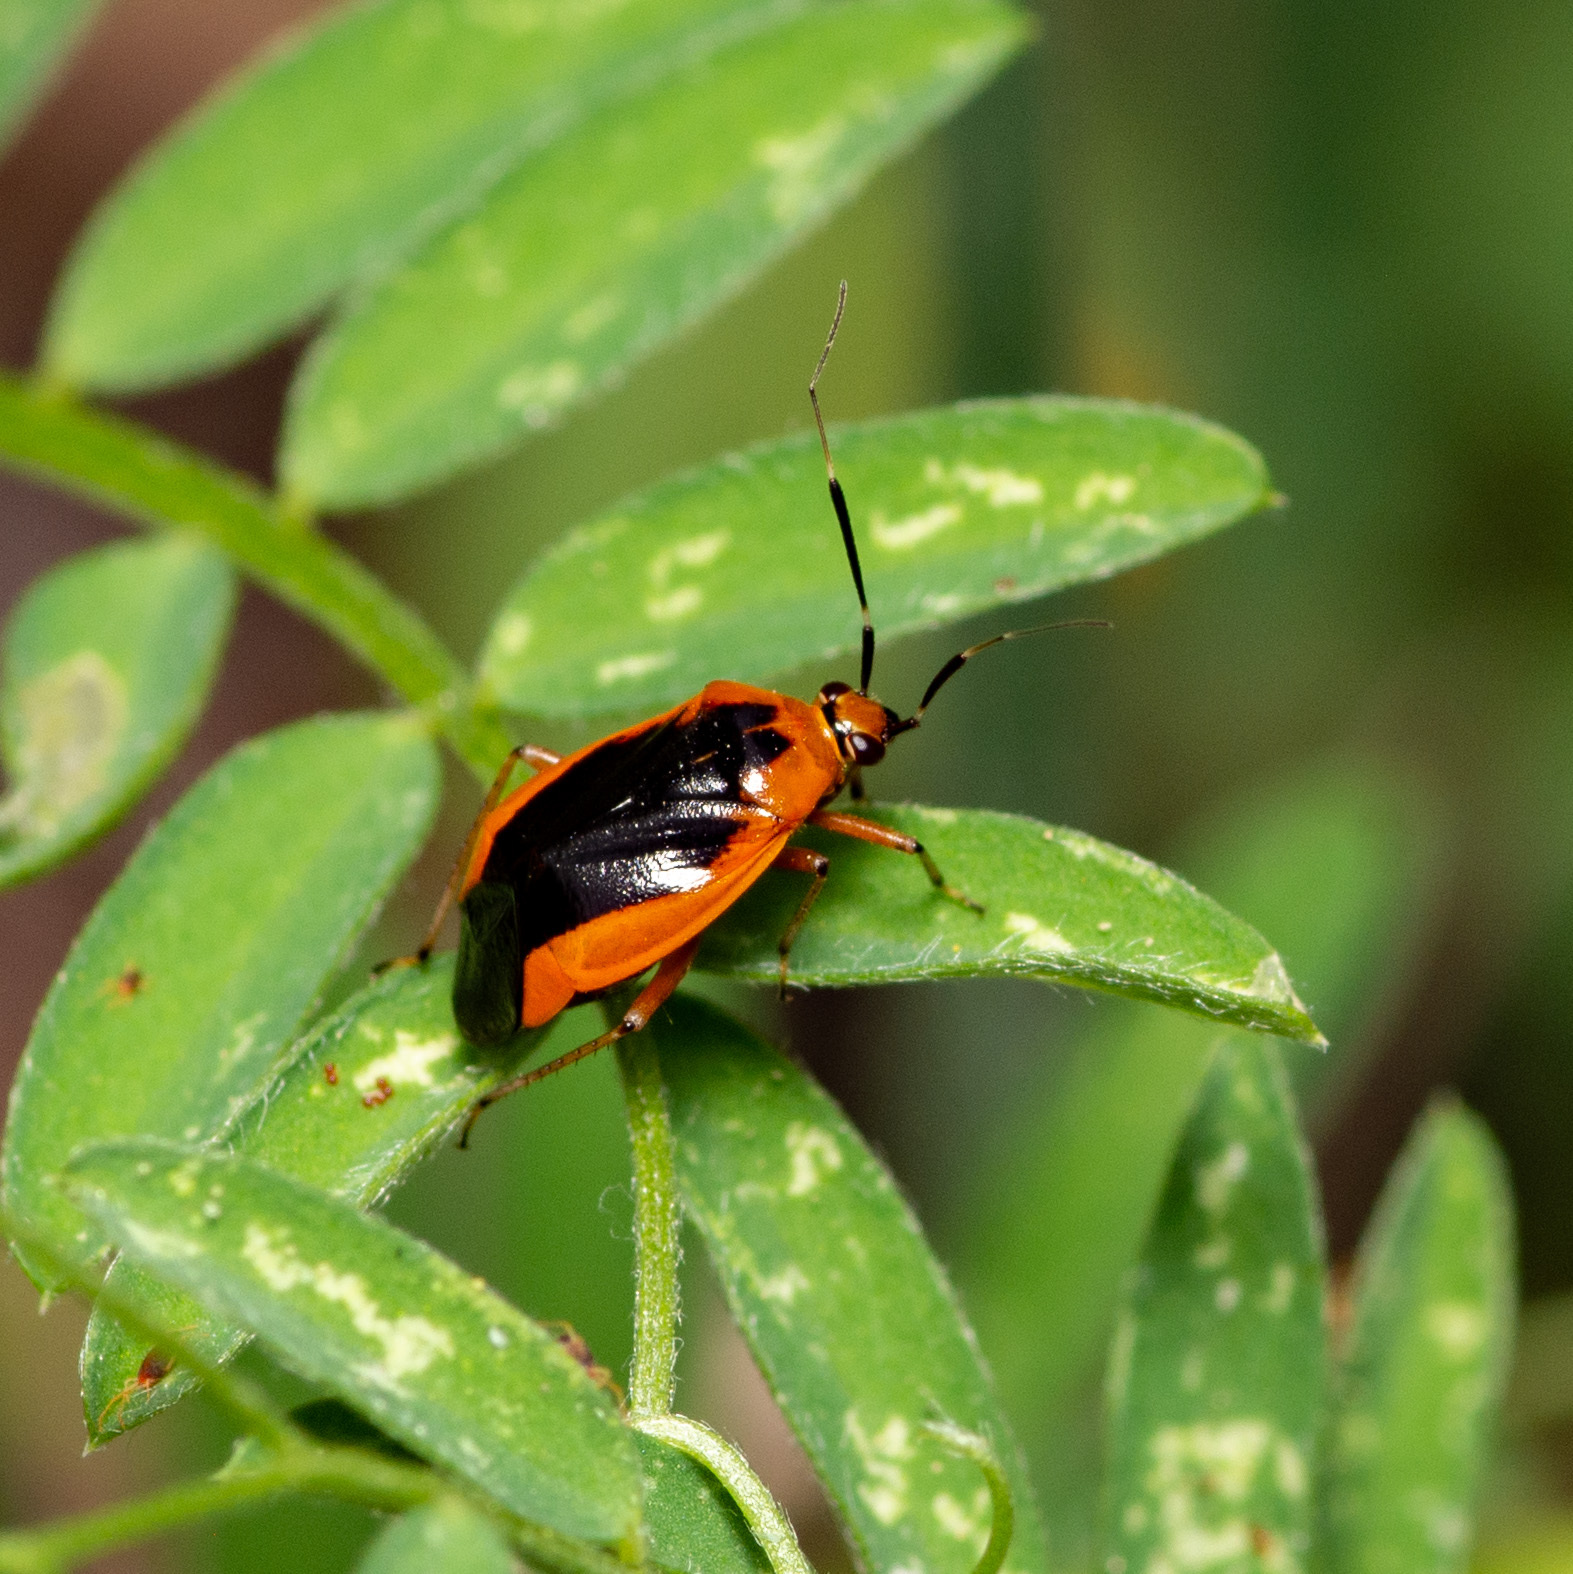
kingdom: Animalia
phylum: Arthropoda
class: Insecta
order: Hemiptera
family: Miridae
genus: Metriorrhynchomiris
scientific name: Metriorrhynchomiris dislocatus
